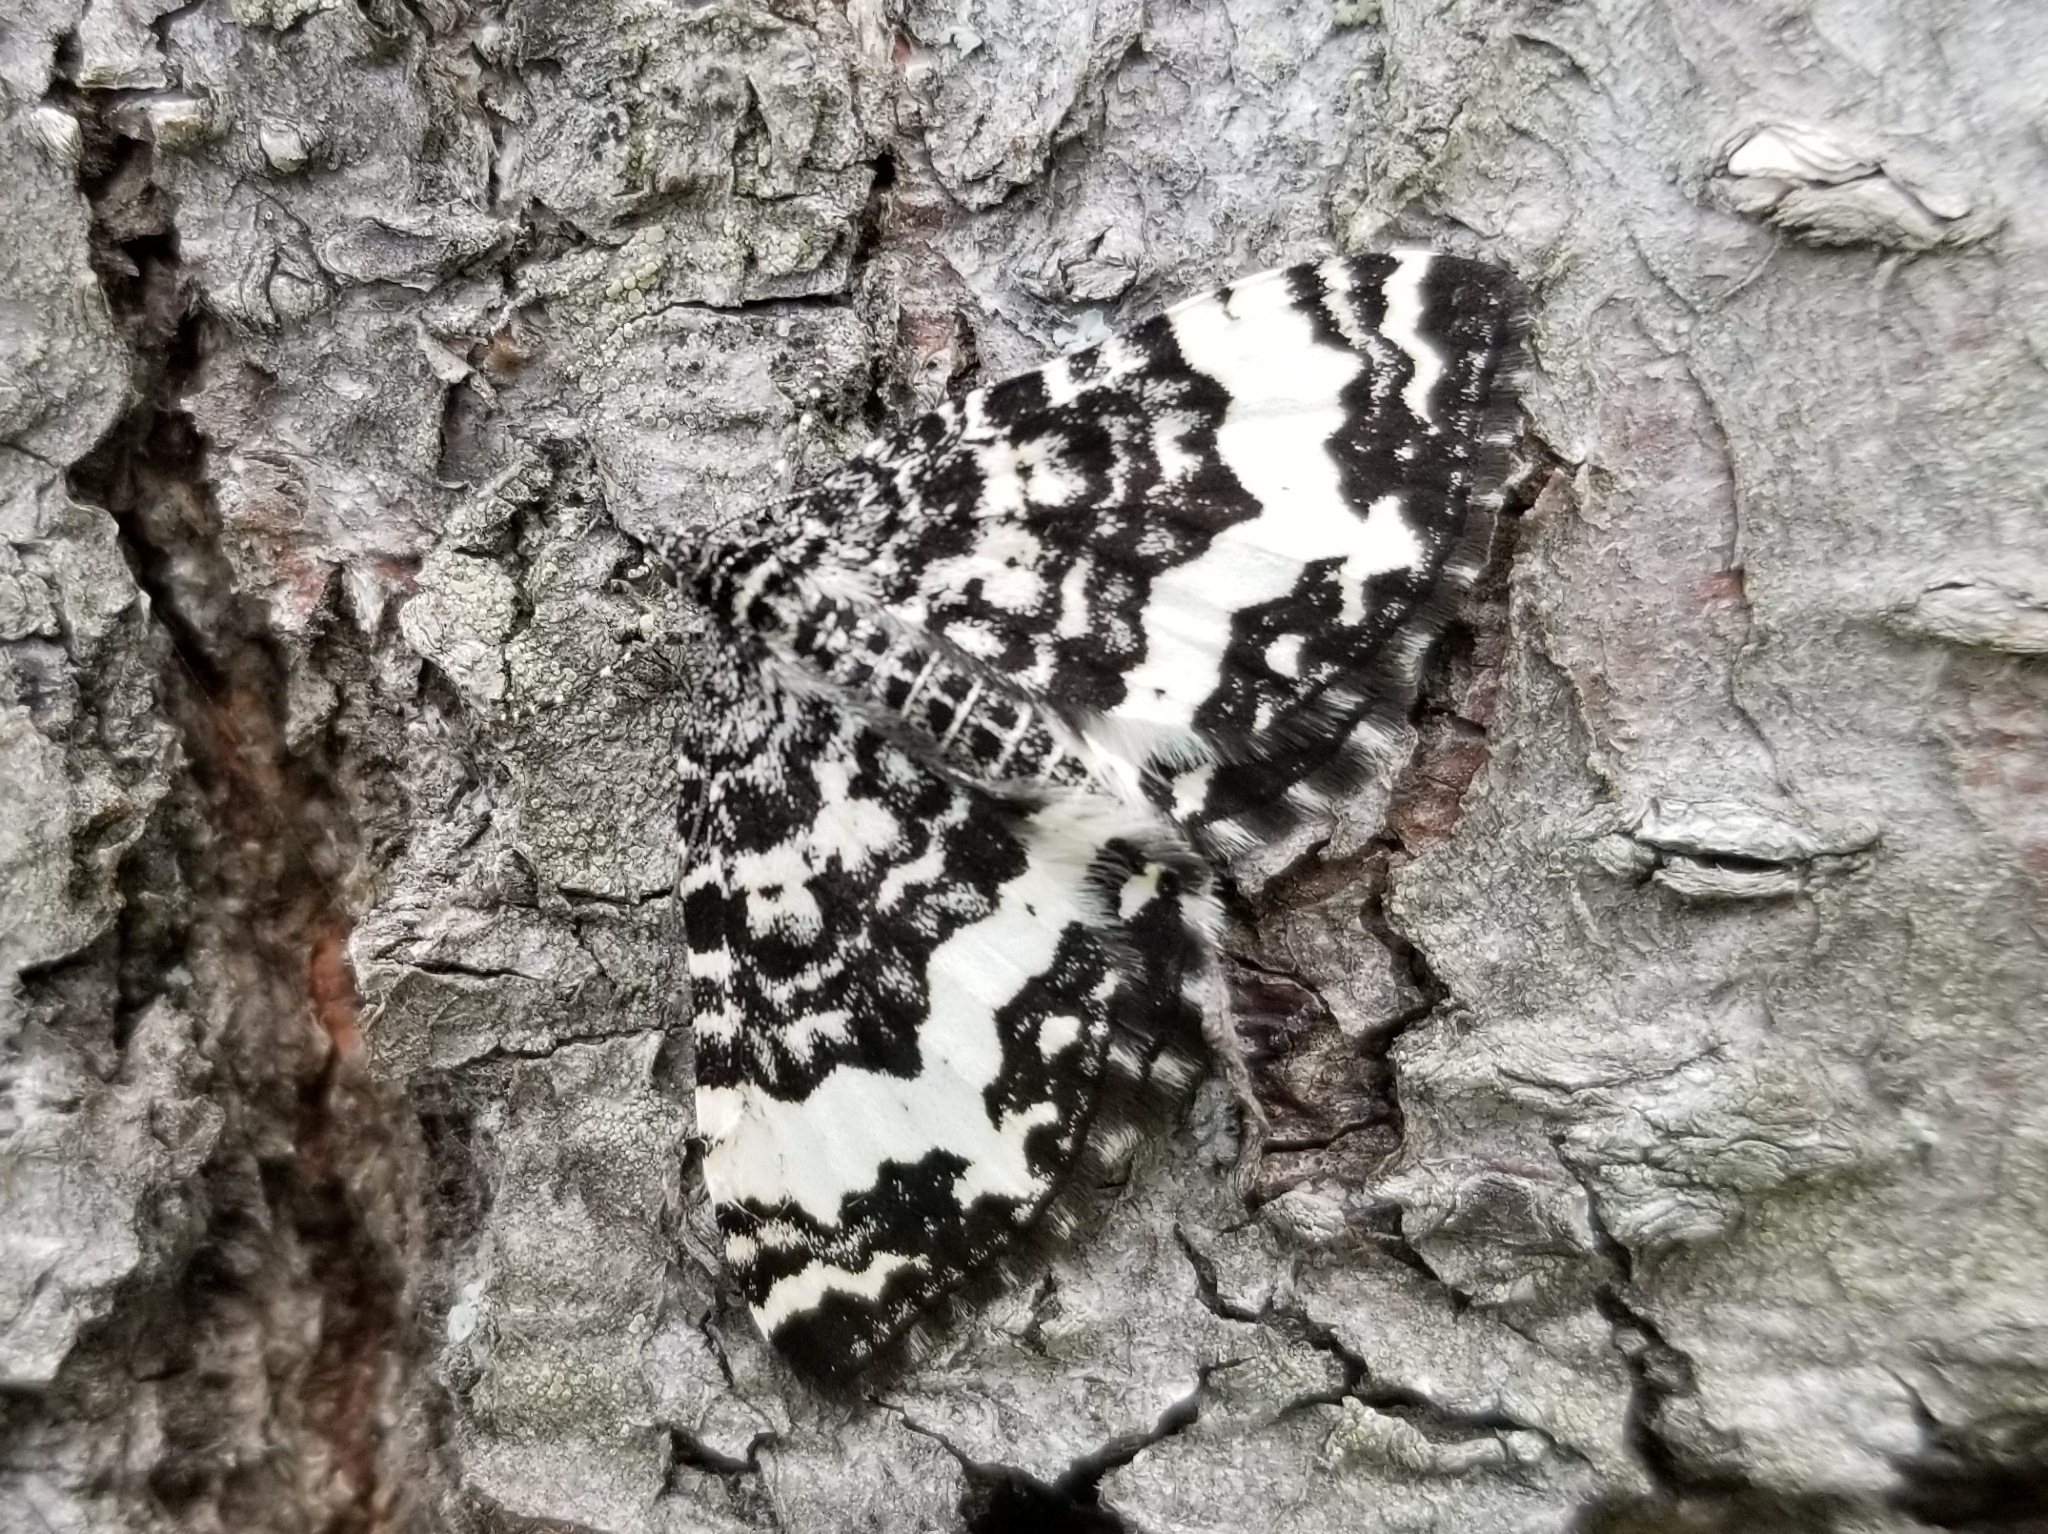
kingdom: Animalia
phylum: Arthropoda
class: Insecta
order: Lepidoptera
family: Geometridae
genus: Rheumaptera
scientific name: Rheumaptera
